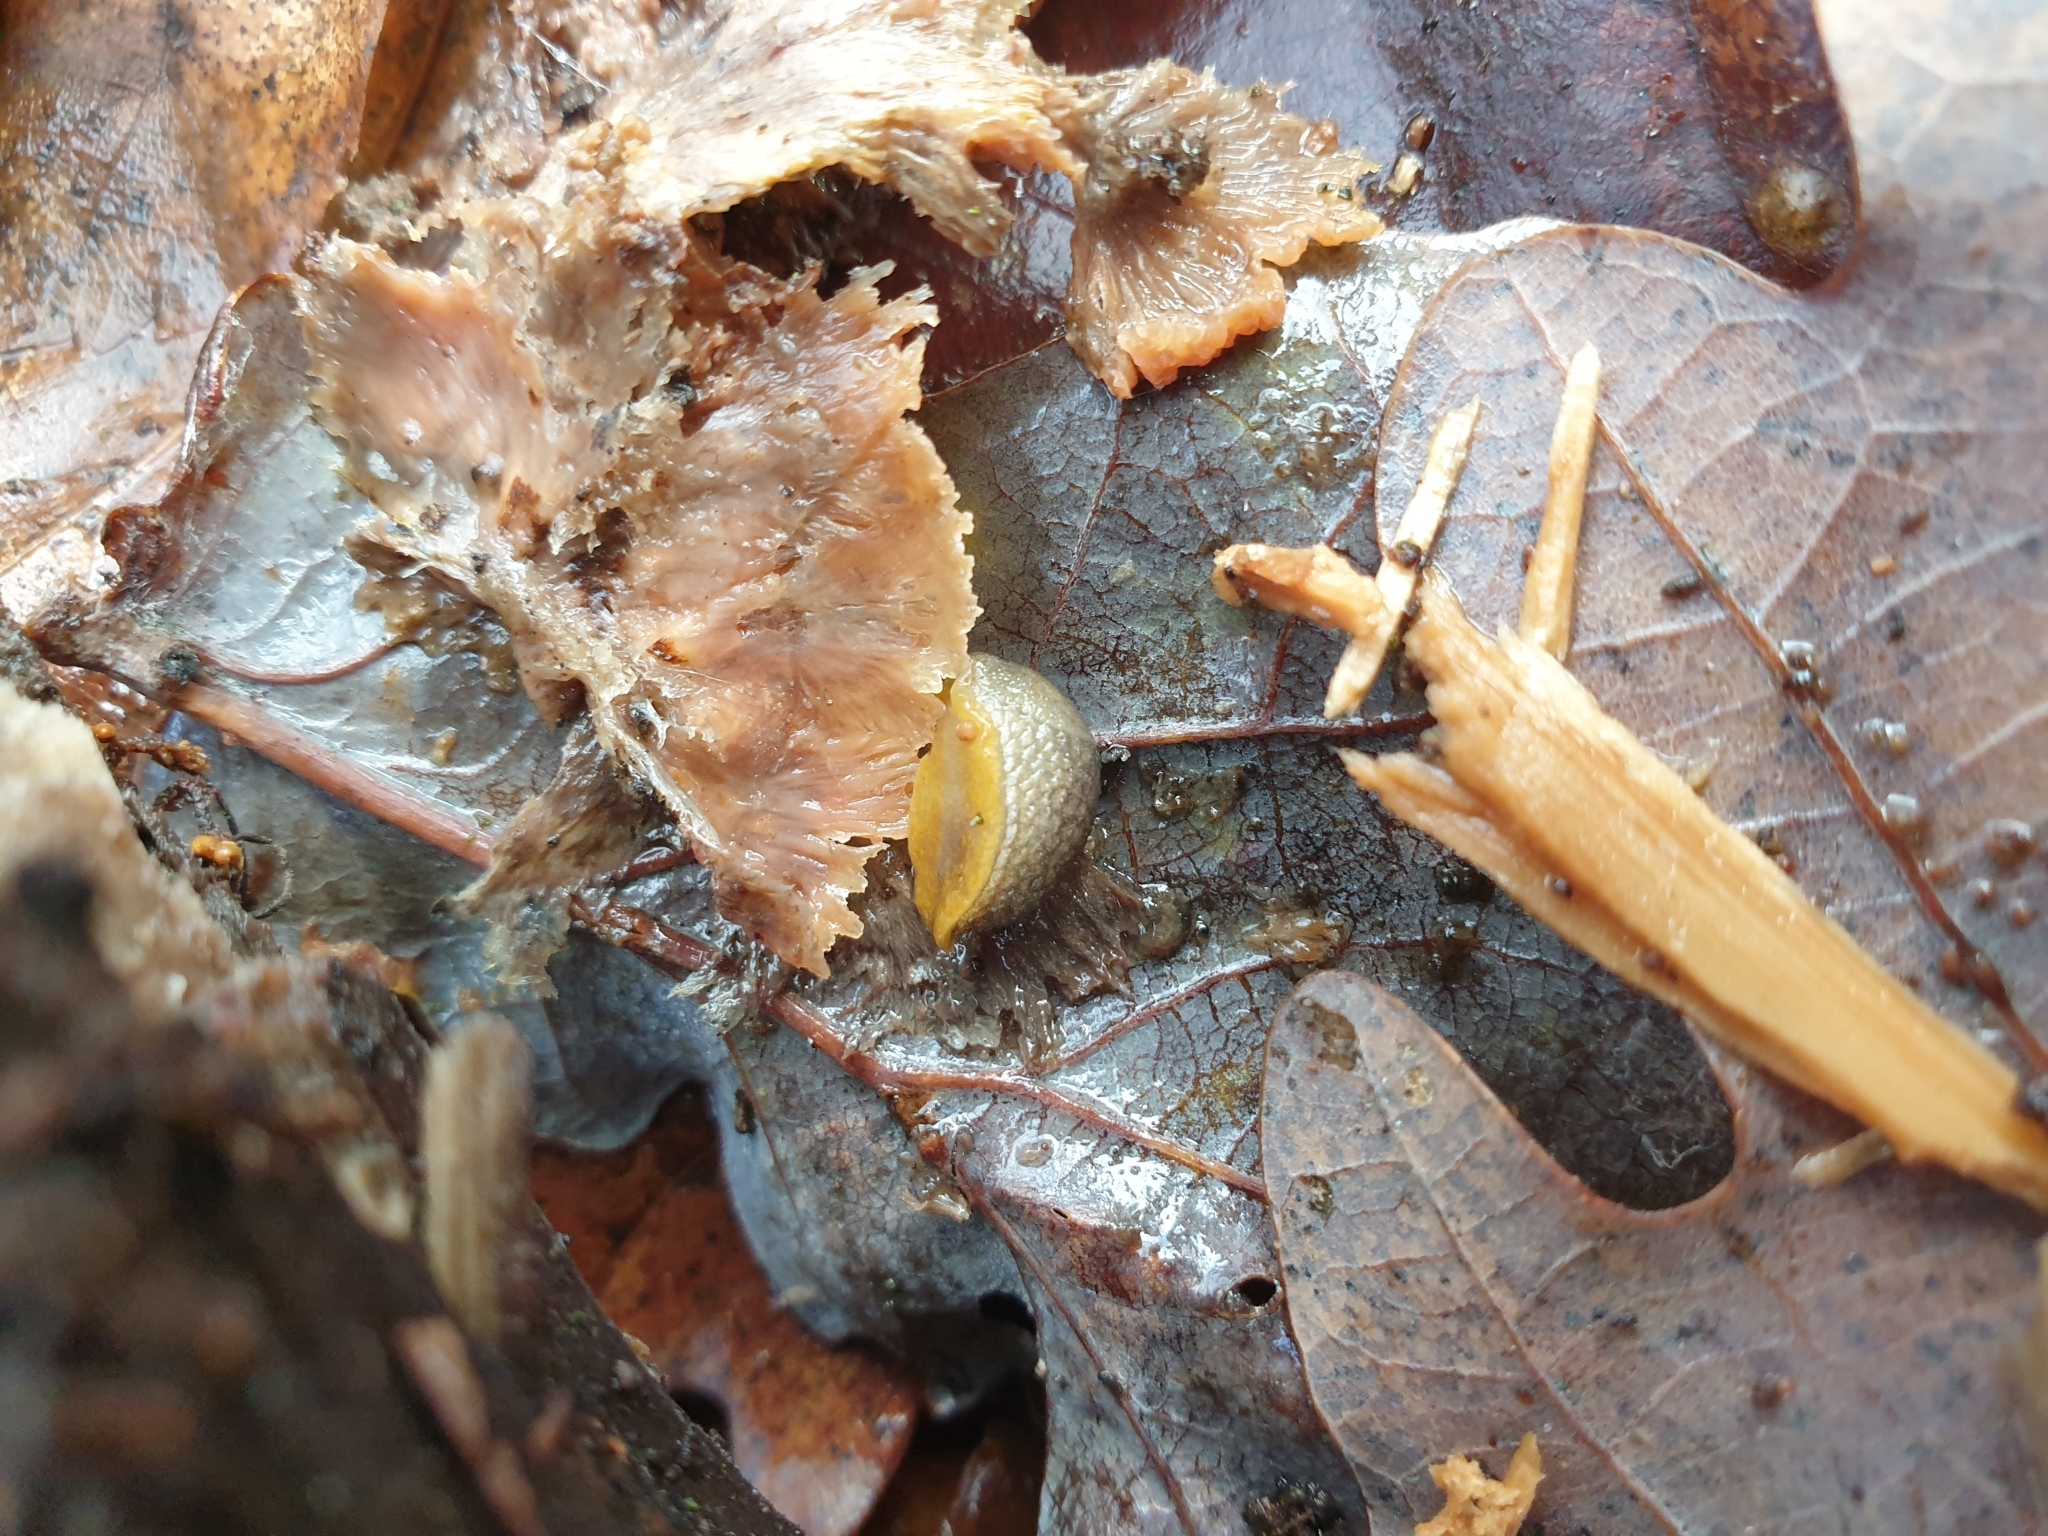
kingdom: Animalia
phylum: Mollusca
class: Gastropoda
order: Stylommatophora
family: Arionidae
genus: Arion
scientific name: Arion intermedius
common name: Hedgehog slug
